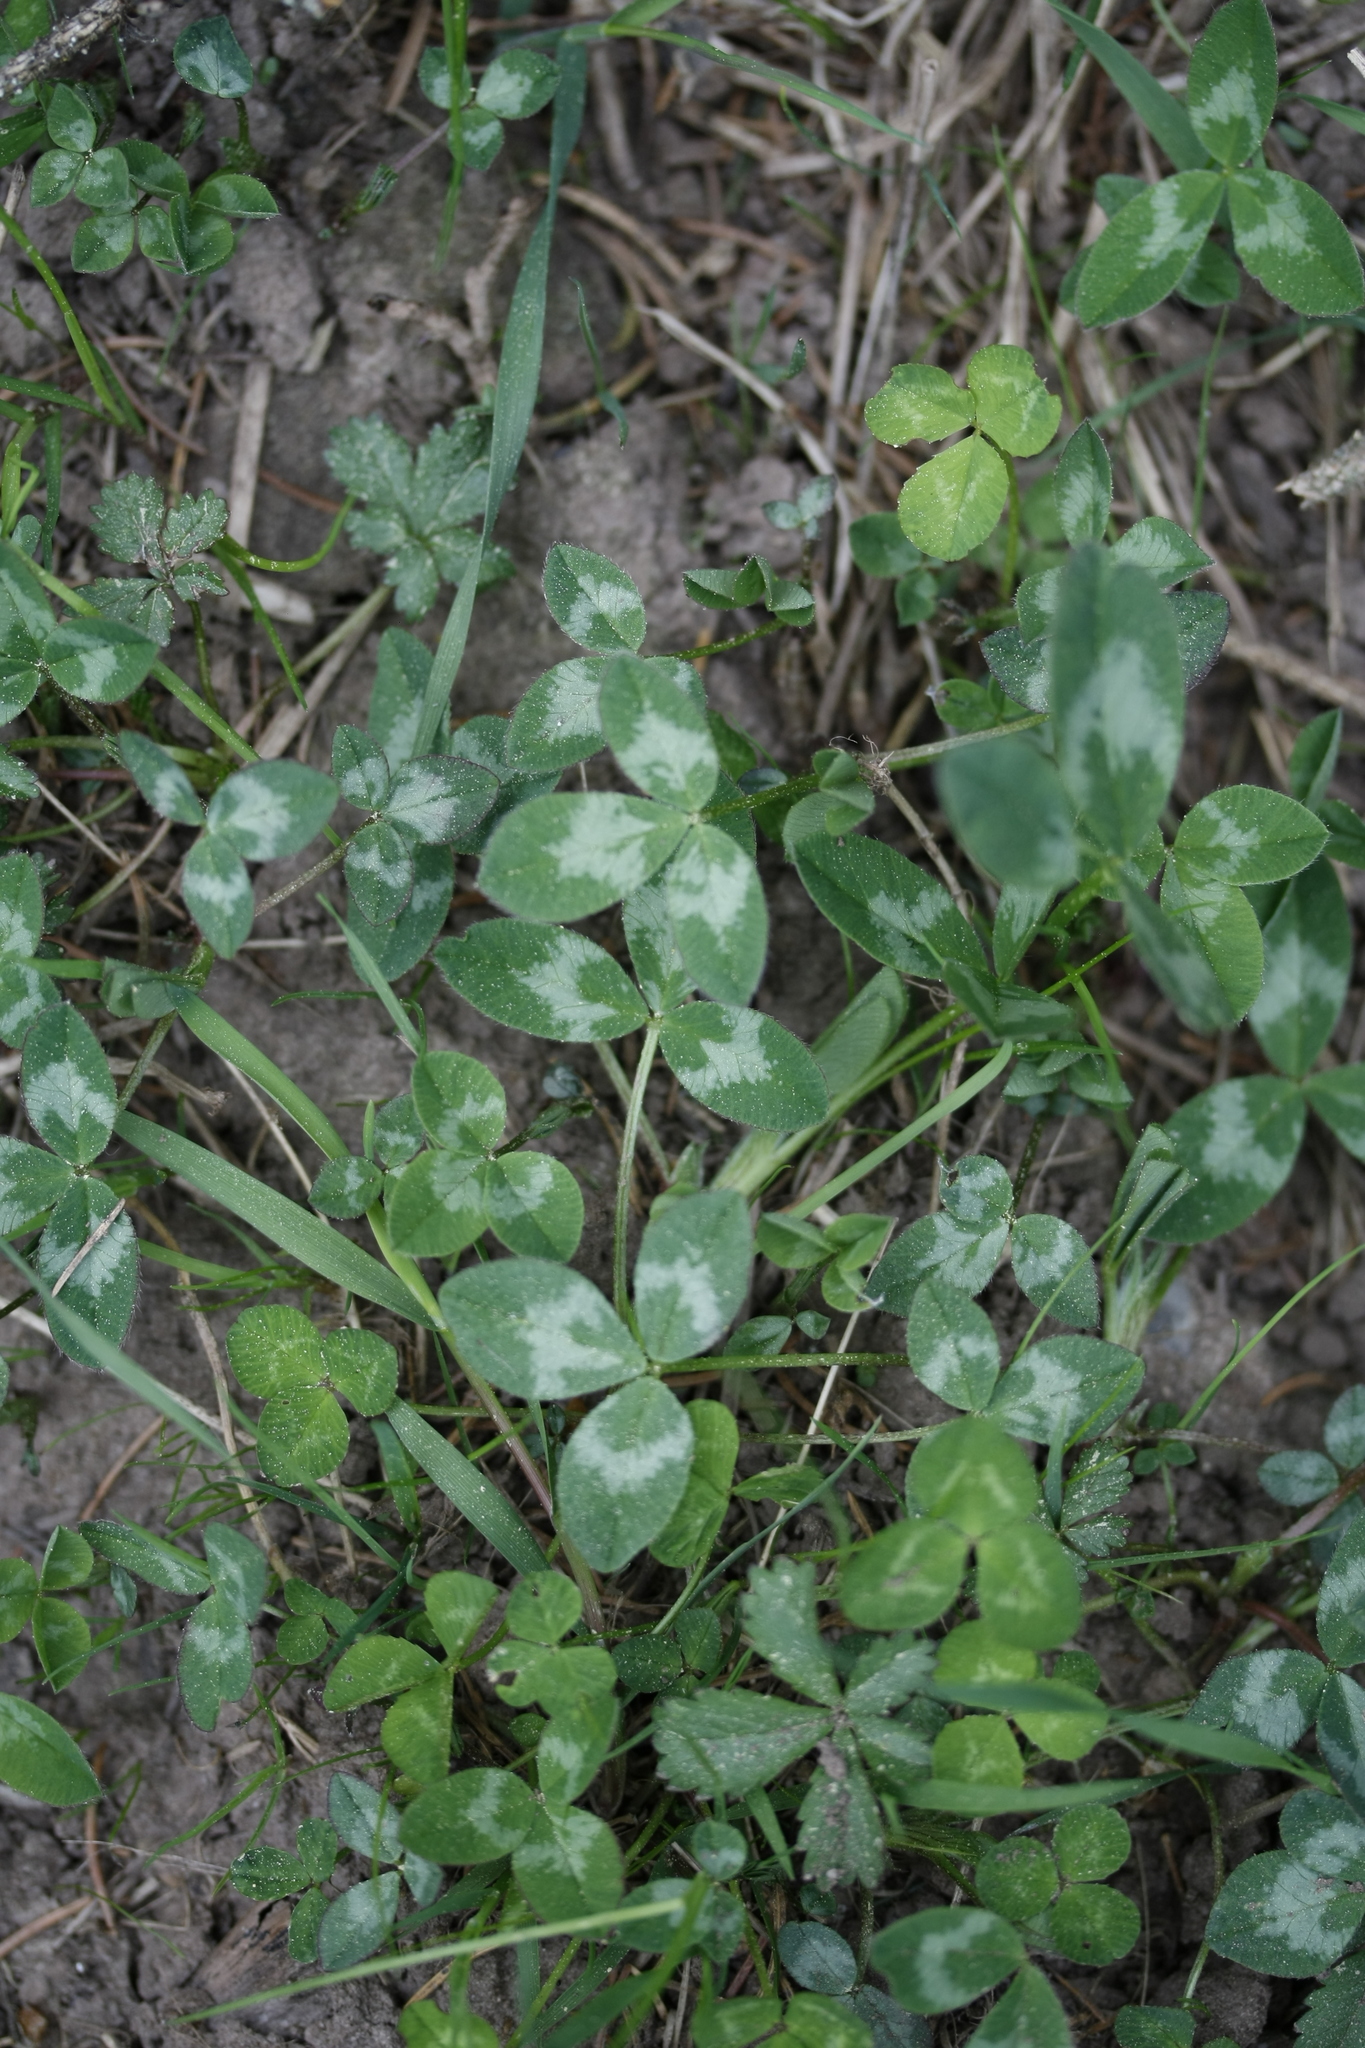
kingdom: Plantae
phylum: Tracheophyta
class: Magnoliopsida
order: Fabales
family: Fabaceae
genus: Trifolium
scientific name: Trifolium pratense
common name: Red clover
